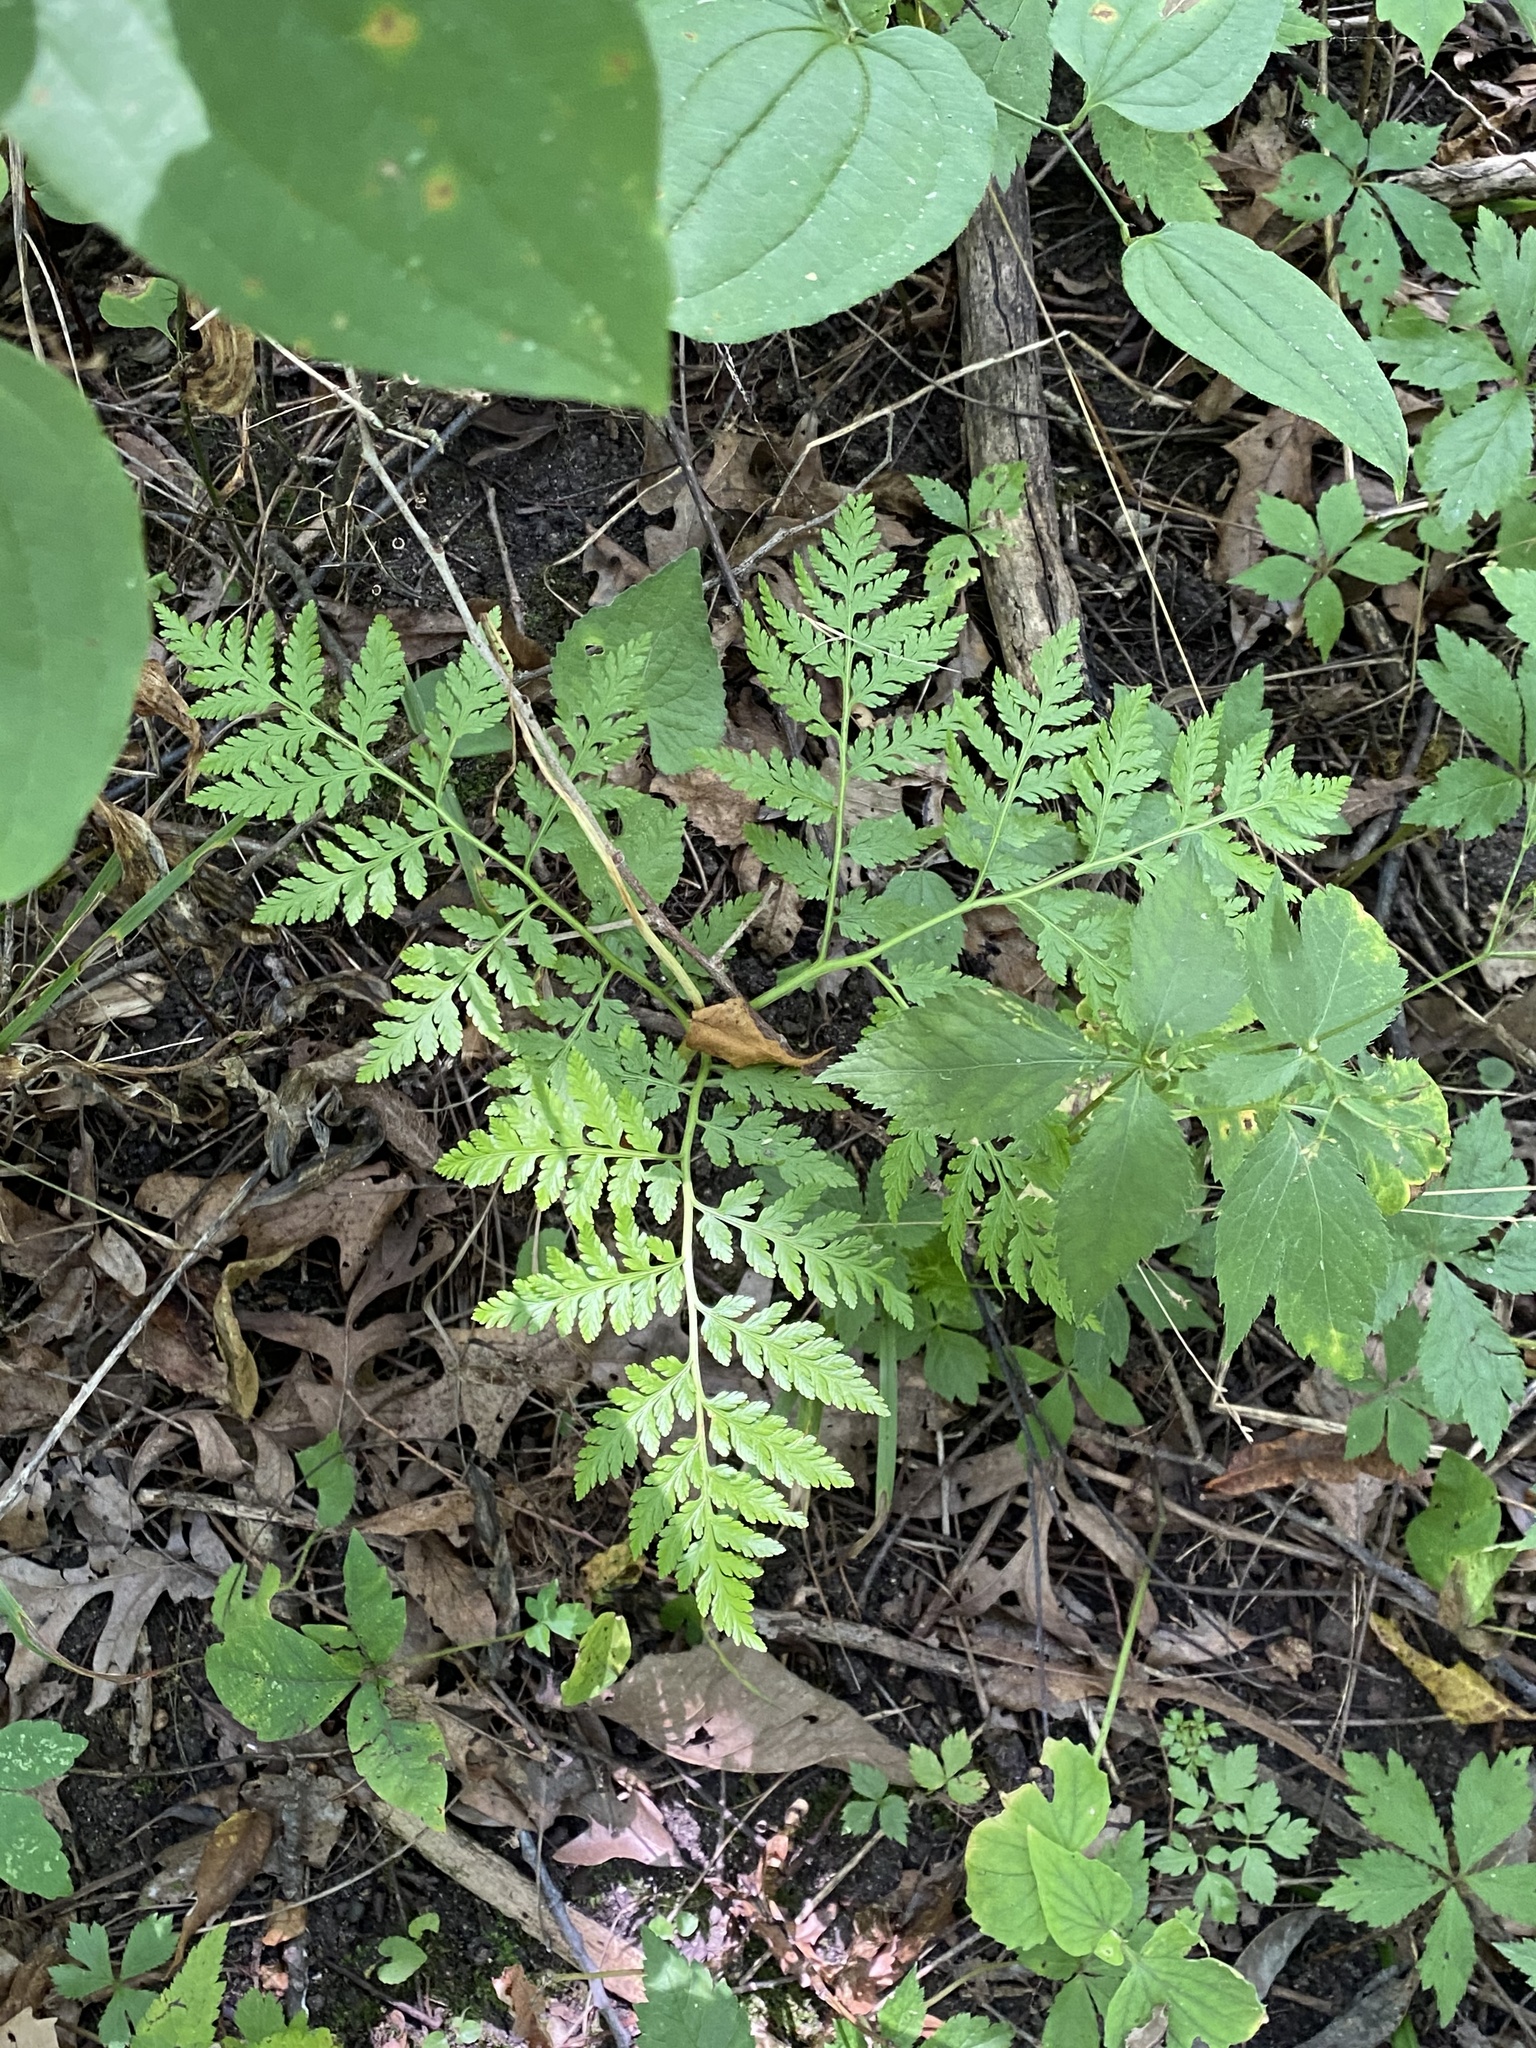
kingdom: Plantae
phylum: Tracheophyta
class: Polypodiopsida
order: Ophioglossales
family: Ophioglossaceae
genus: Botrypus
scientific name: Botrypus virginianus
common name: Common grapefern
